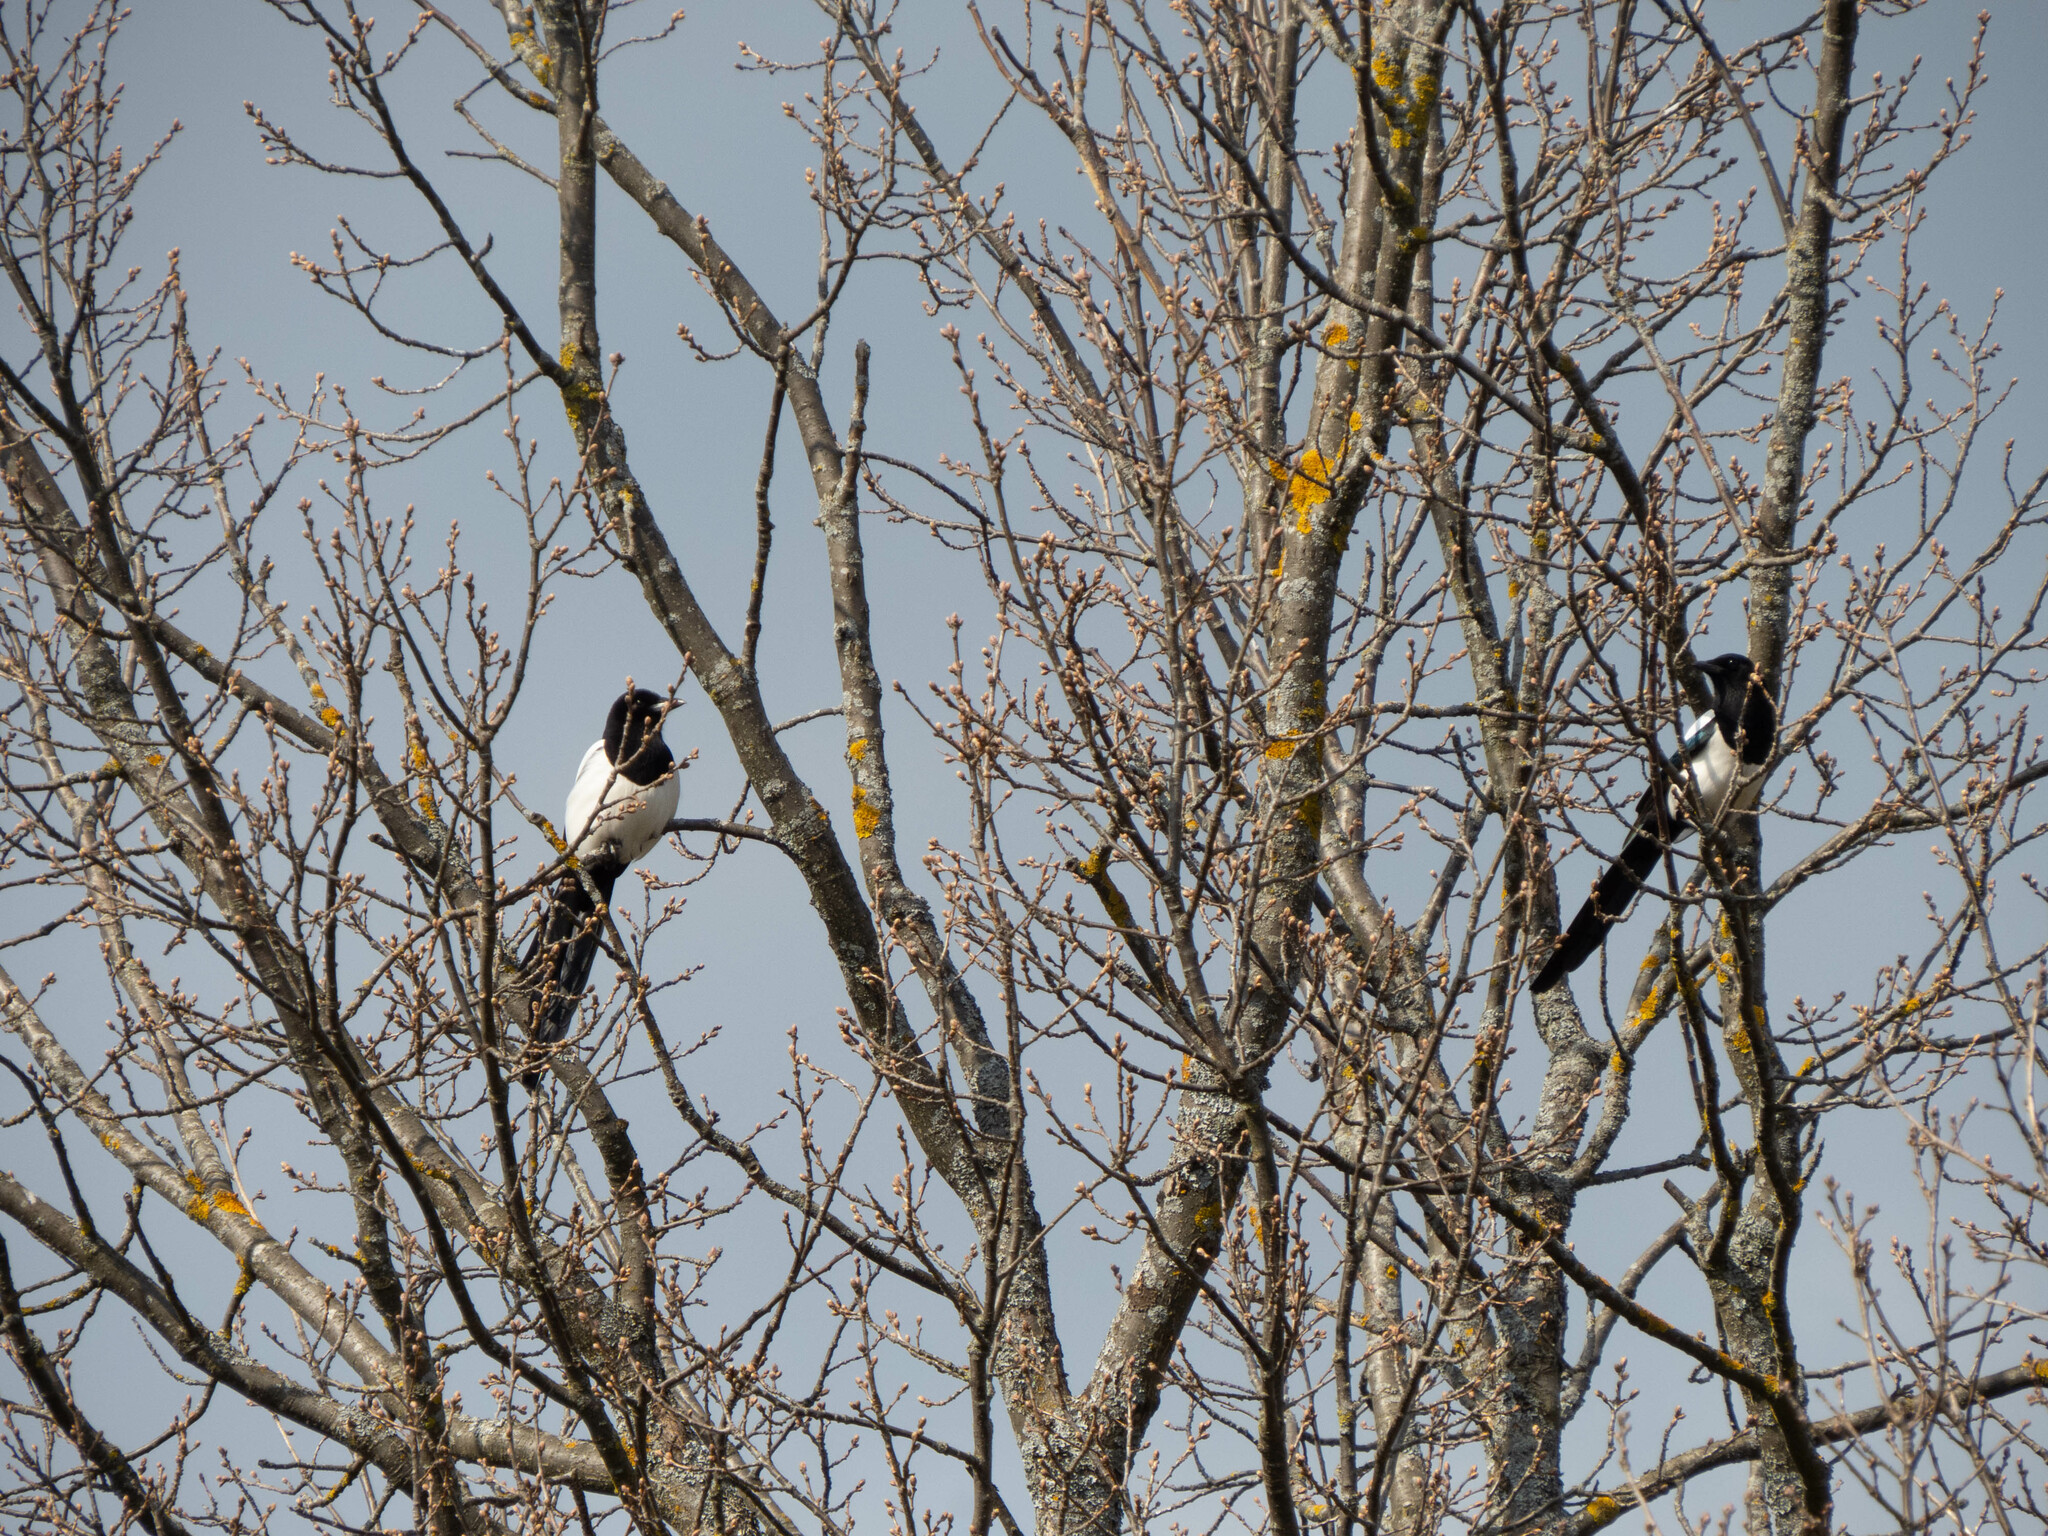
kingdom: Animalia
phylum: Chordata
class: Aves
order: Passeriformes
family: Corvidae
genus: Pica
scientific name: Pica pica
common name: Eurasian magpie
